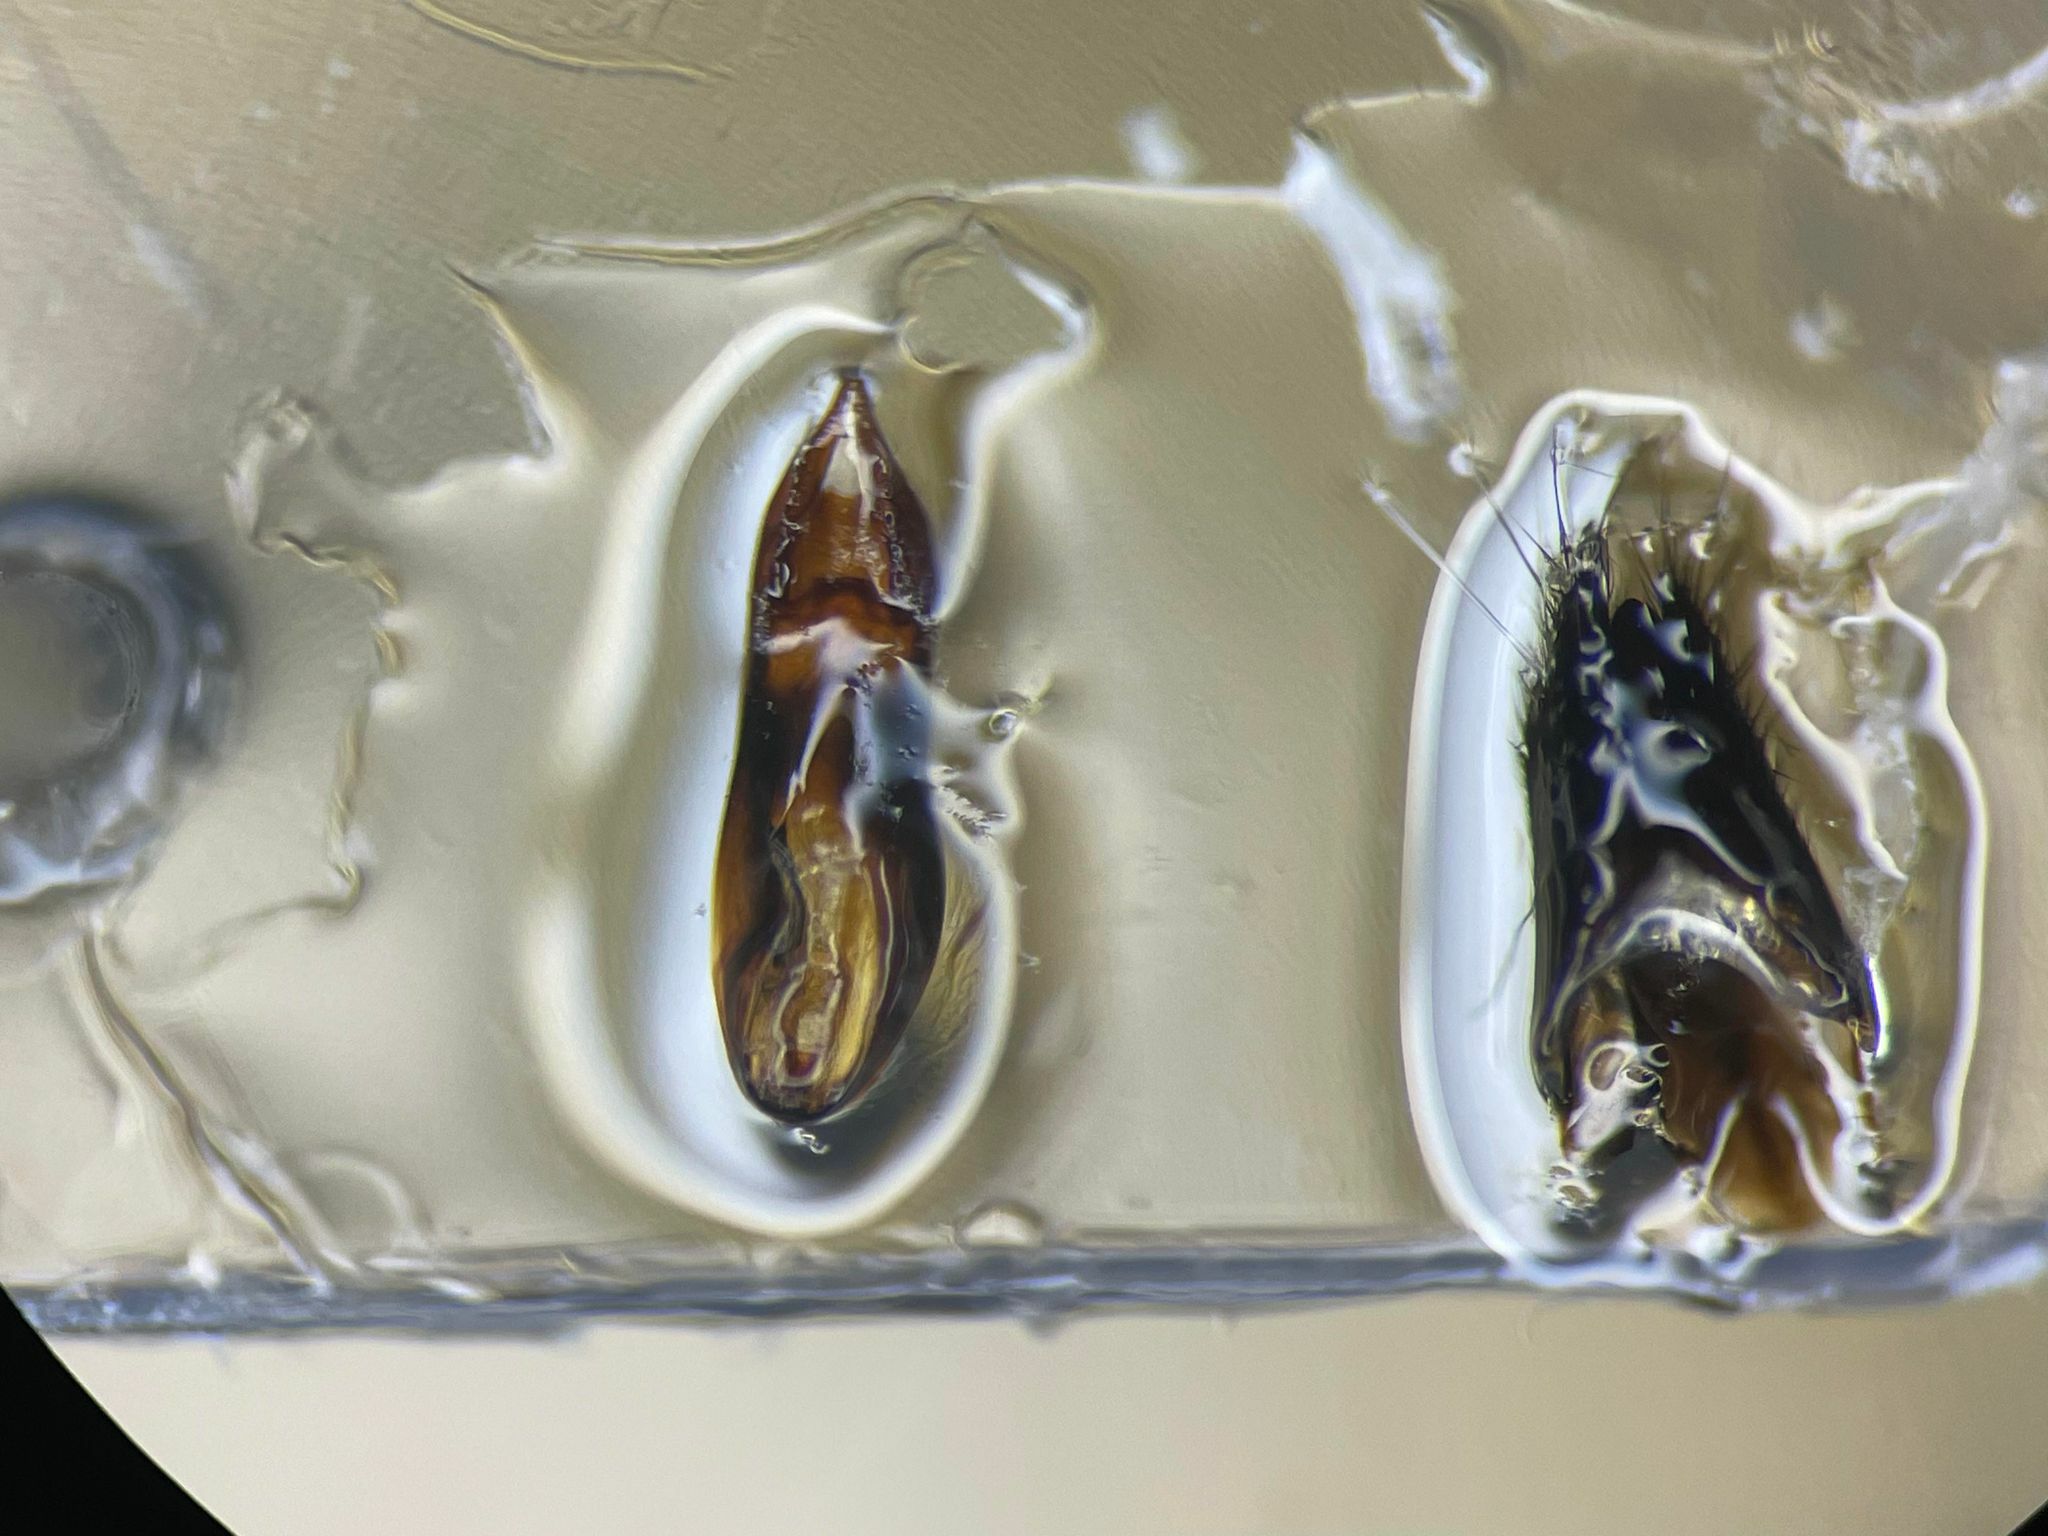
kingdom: Animalia
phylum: Arthropoda
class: Insecta
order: Coleoptera
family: Staphylinidae
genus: Paederus
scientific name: Paederus littoralis
